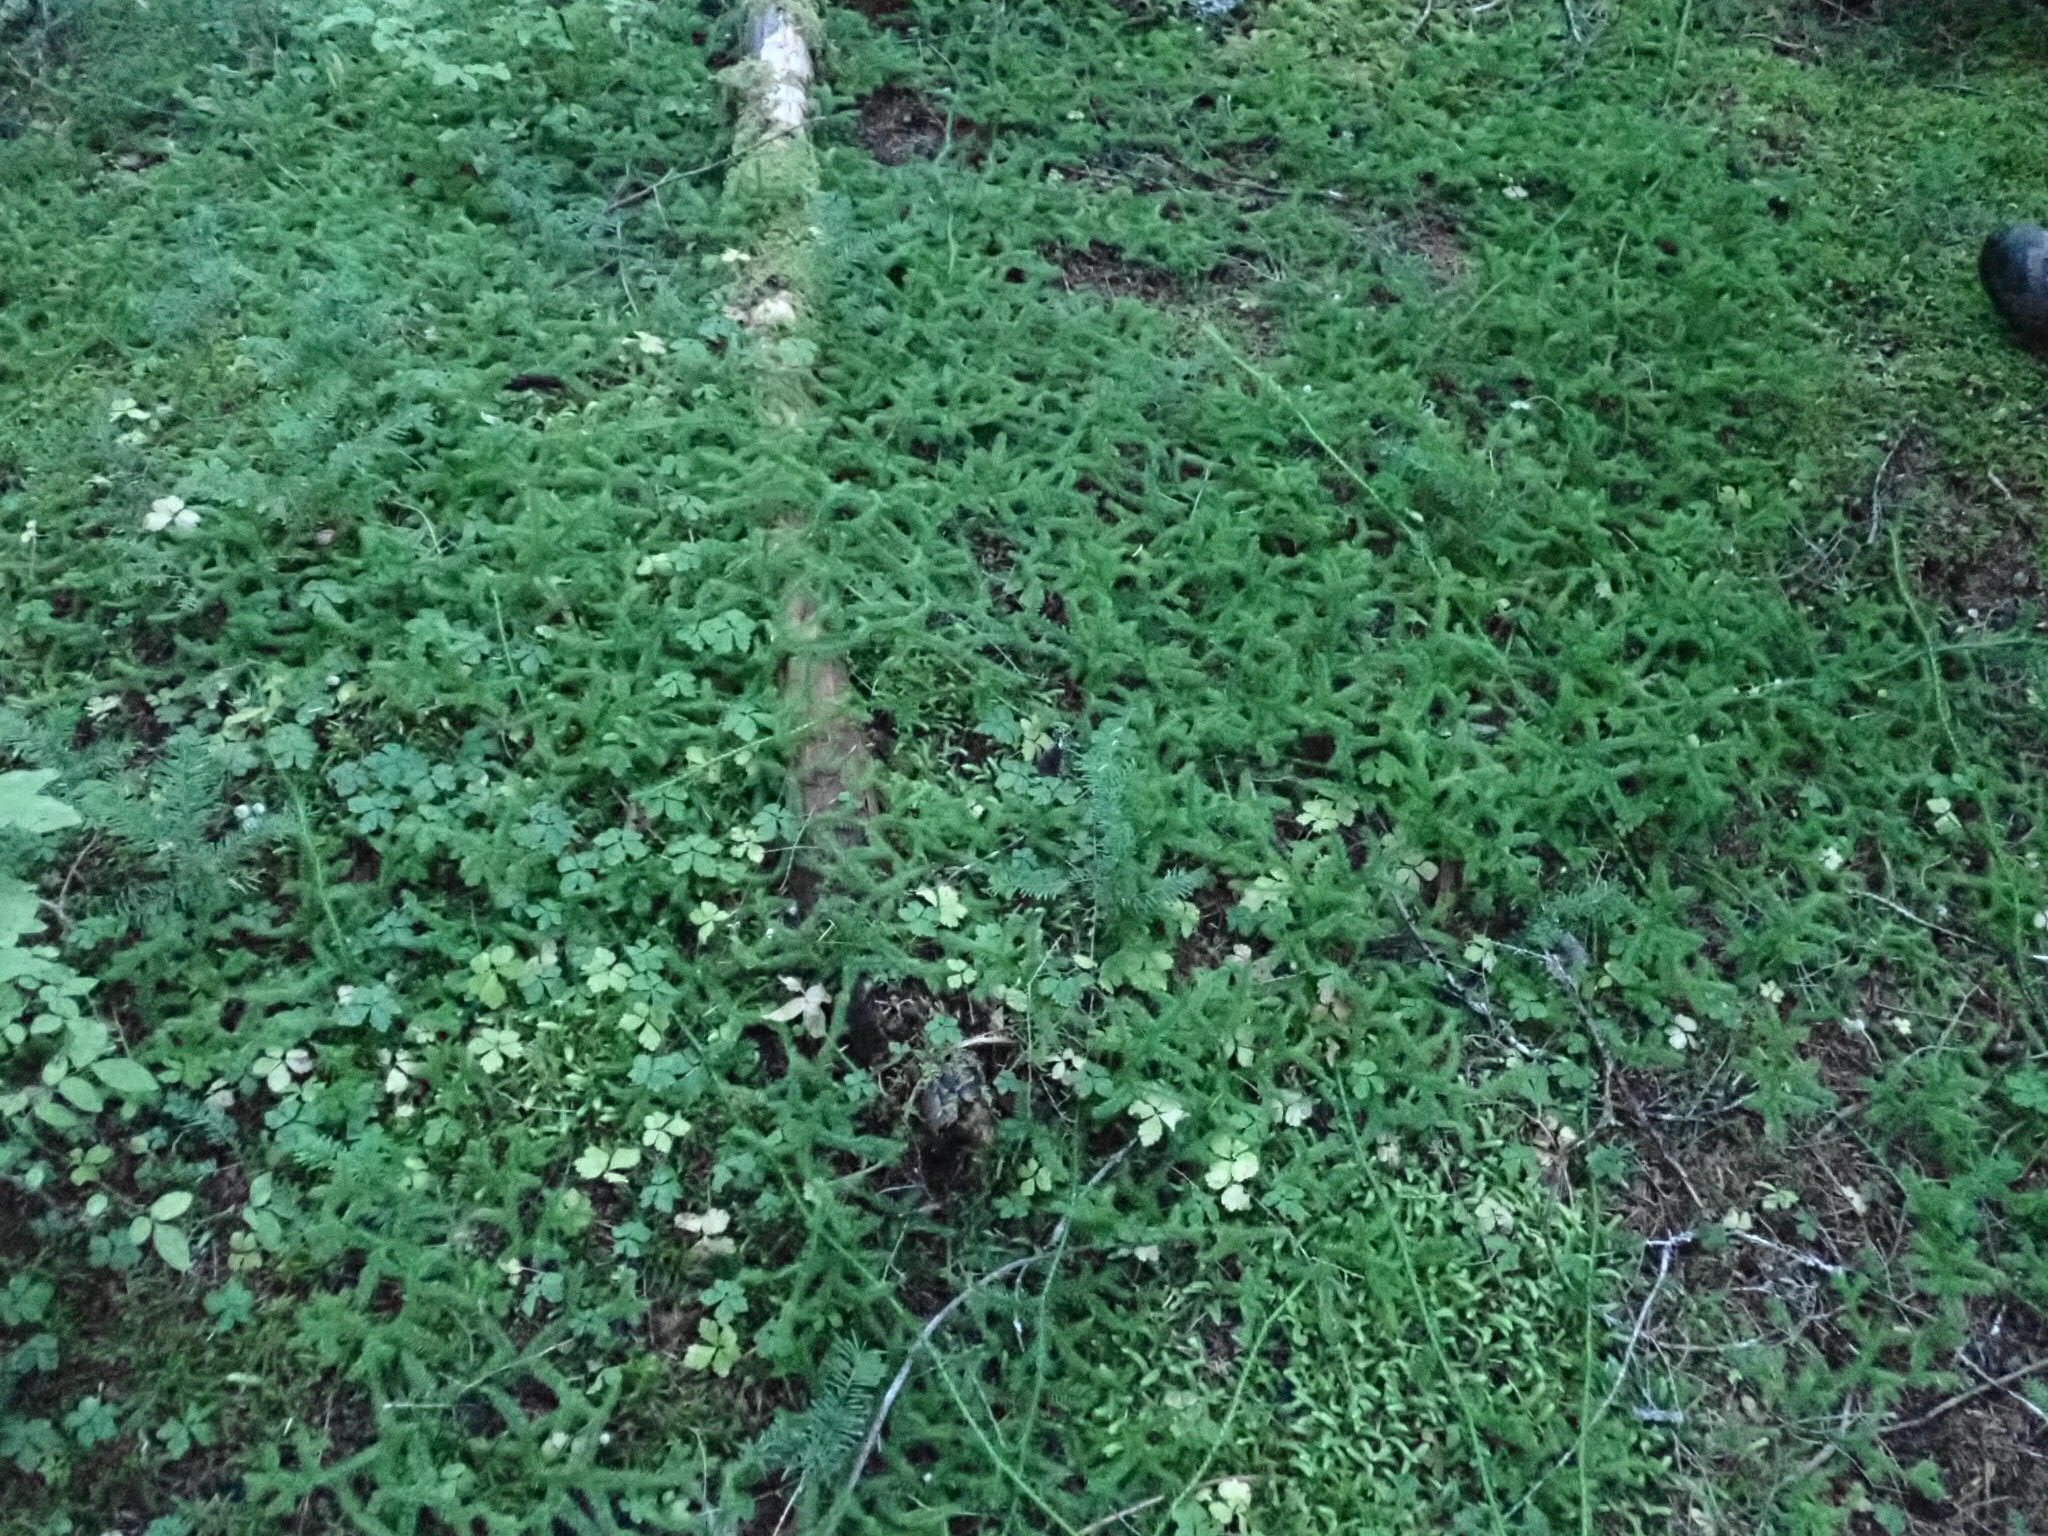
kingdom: Plantae
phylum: Tracheophyta
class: Lycopodiopsida
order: Lycopodiales
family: Lycopodiaceae
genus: Lycopodium
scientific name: Lycopodium clavatum
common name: Stag's-horn clubmoss
